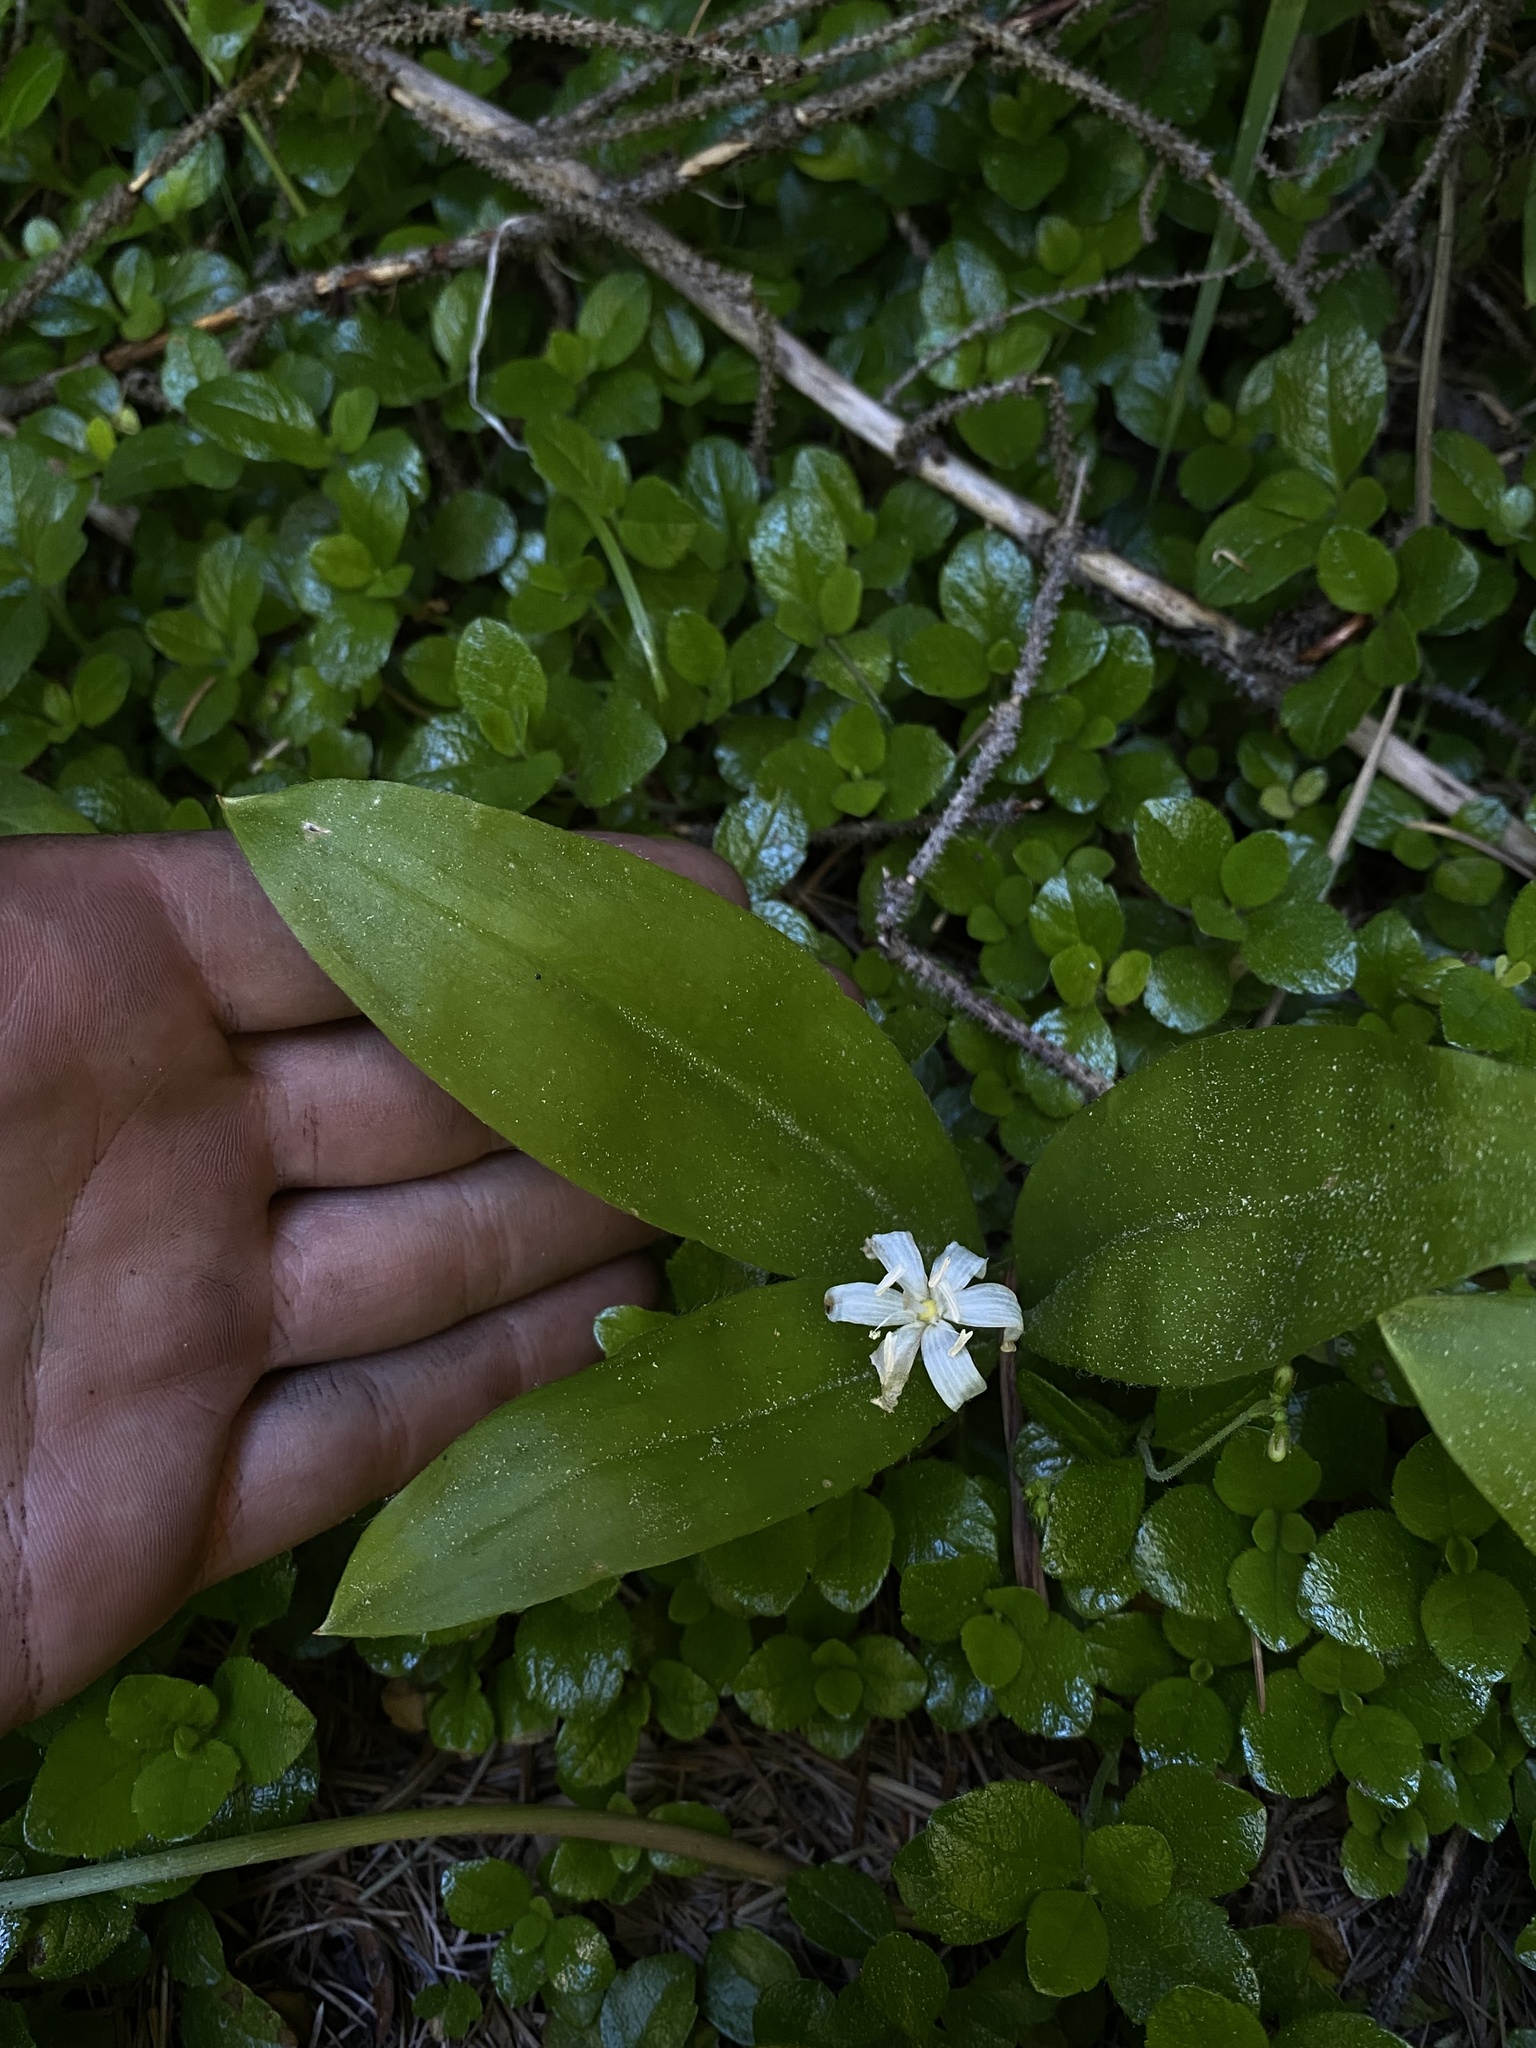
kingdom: Plantae
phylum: Tracheophyta
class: Liliopsida
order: Liliales
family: Liliaceae
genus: Clintonia
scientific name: Clintonia uniflora
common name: Queen's cup
